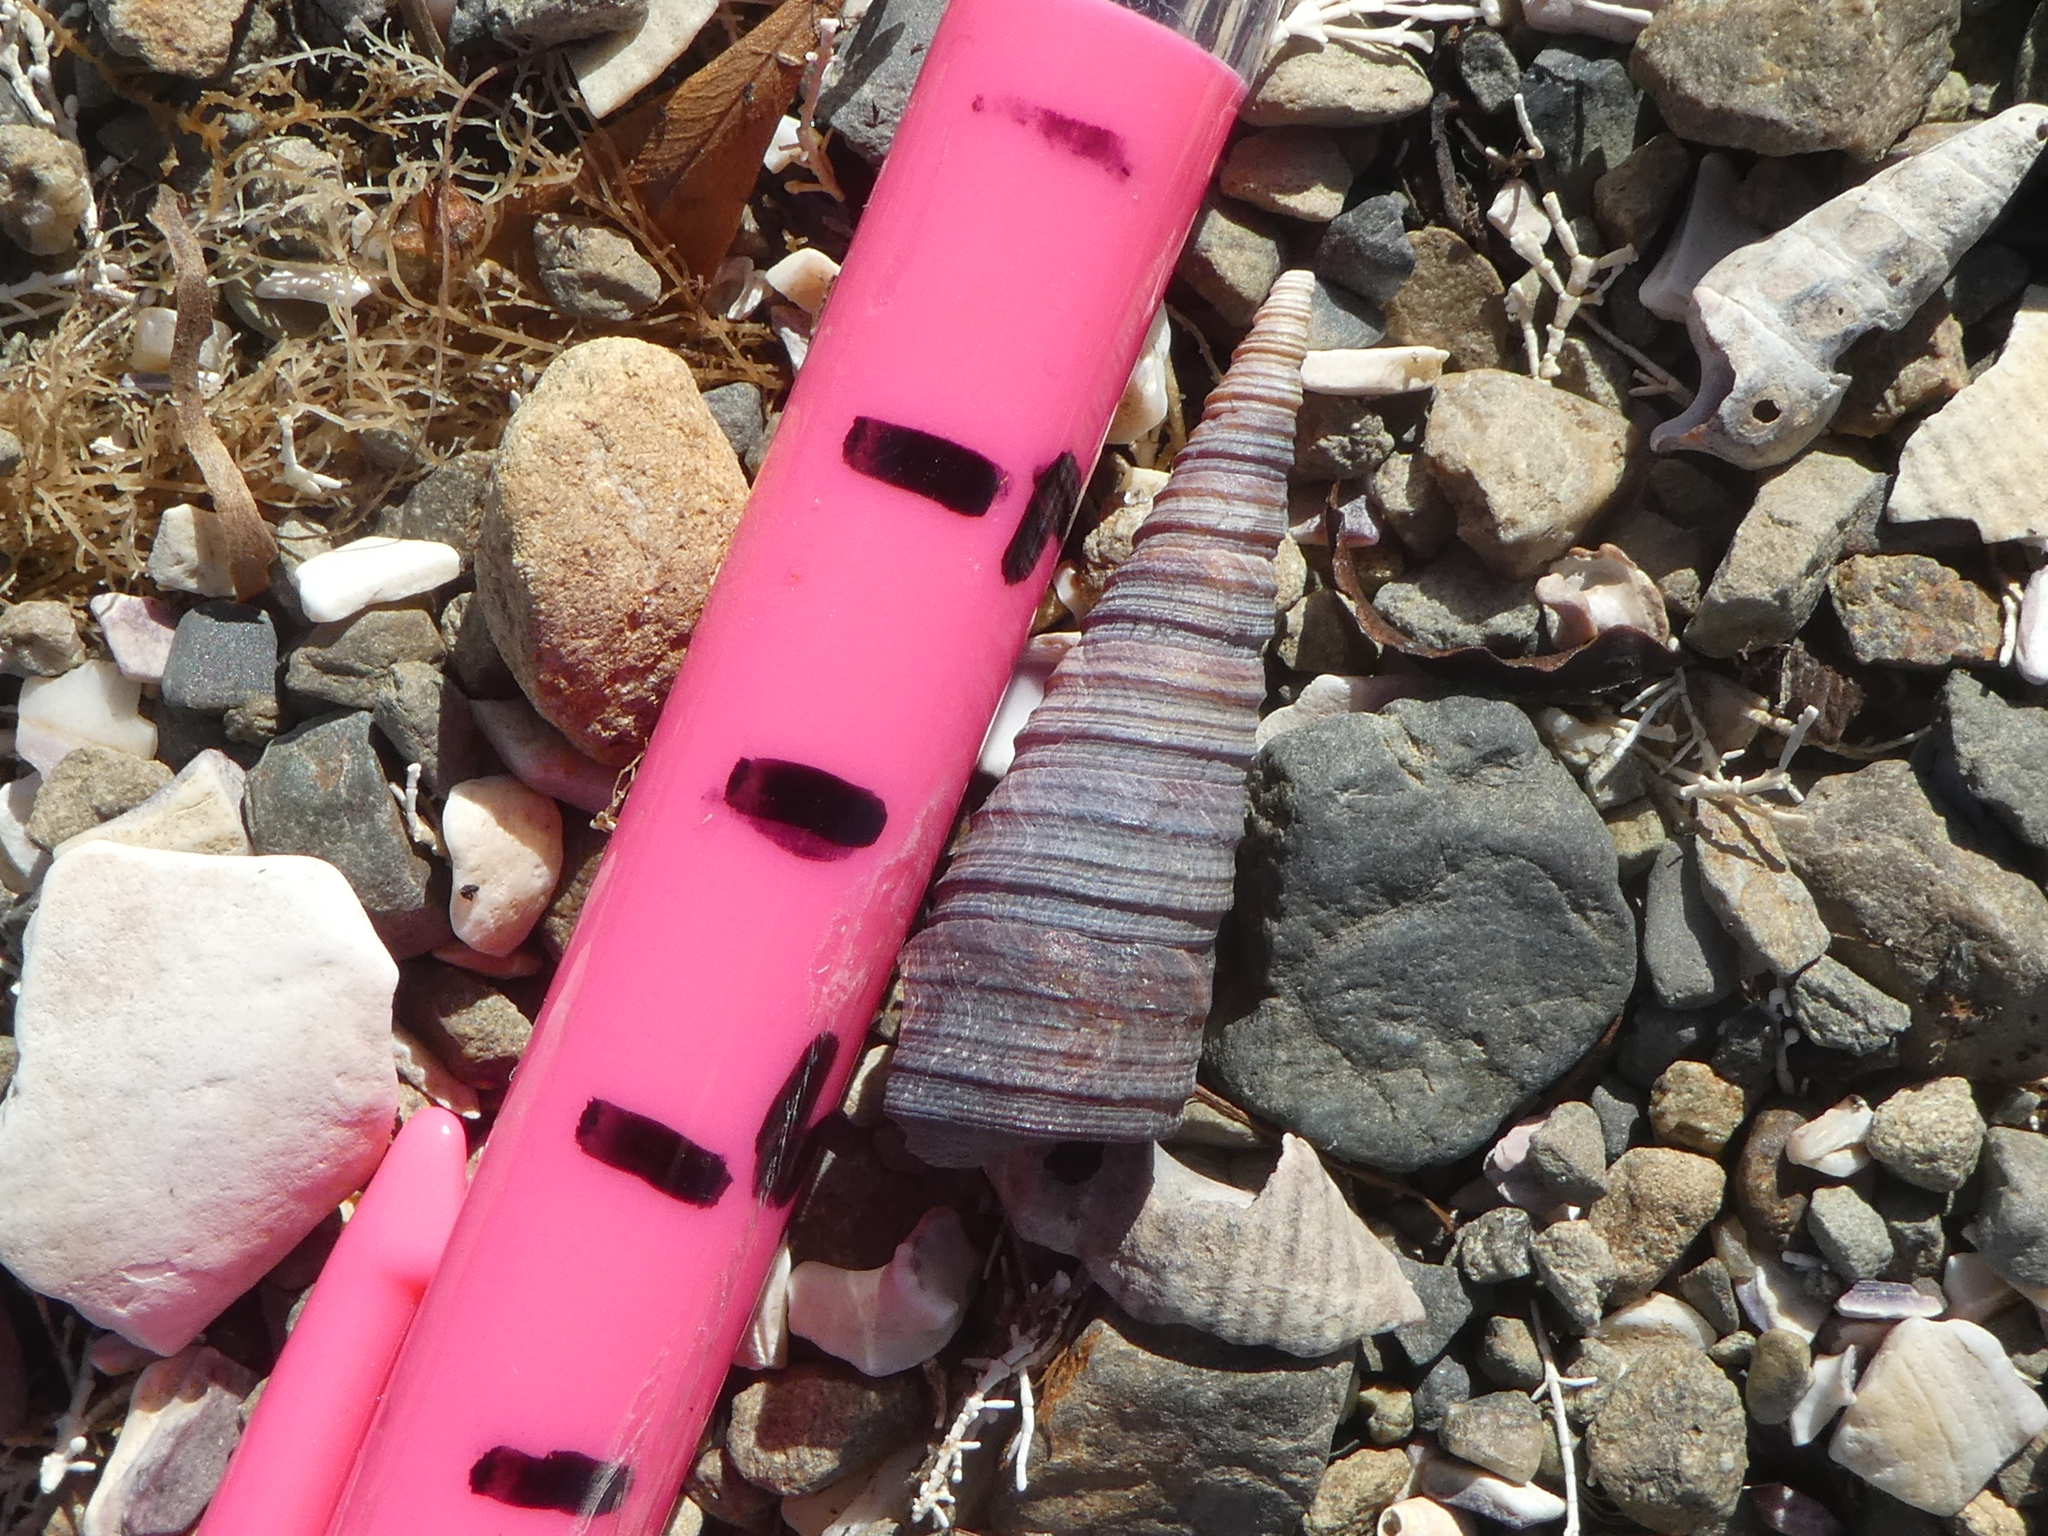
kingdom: Animalia
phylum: Mollusca
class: Gastropoda
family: Turritellidae
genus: Maoricolpus
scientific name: Maoricolpus roseus
